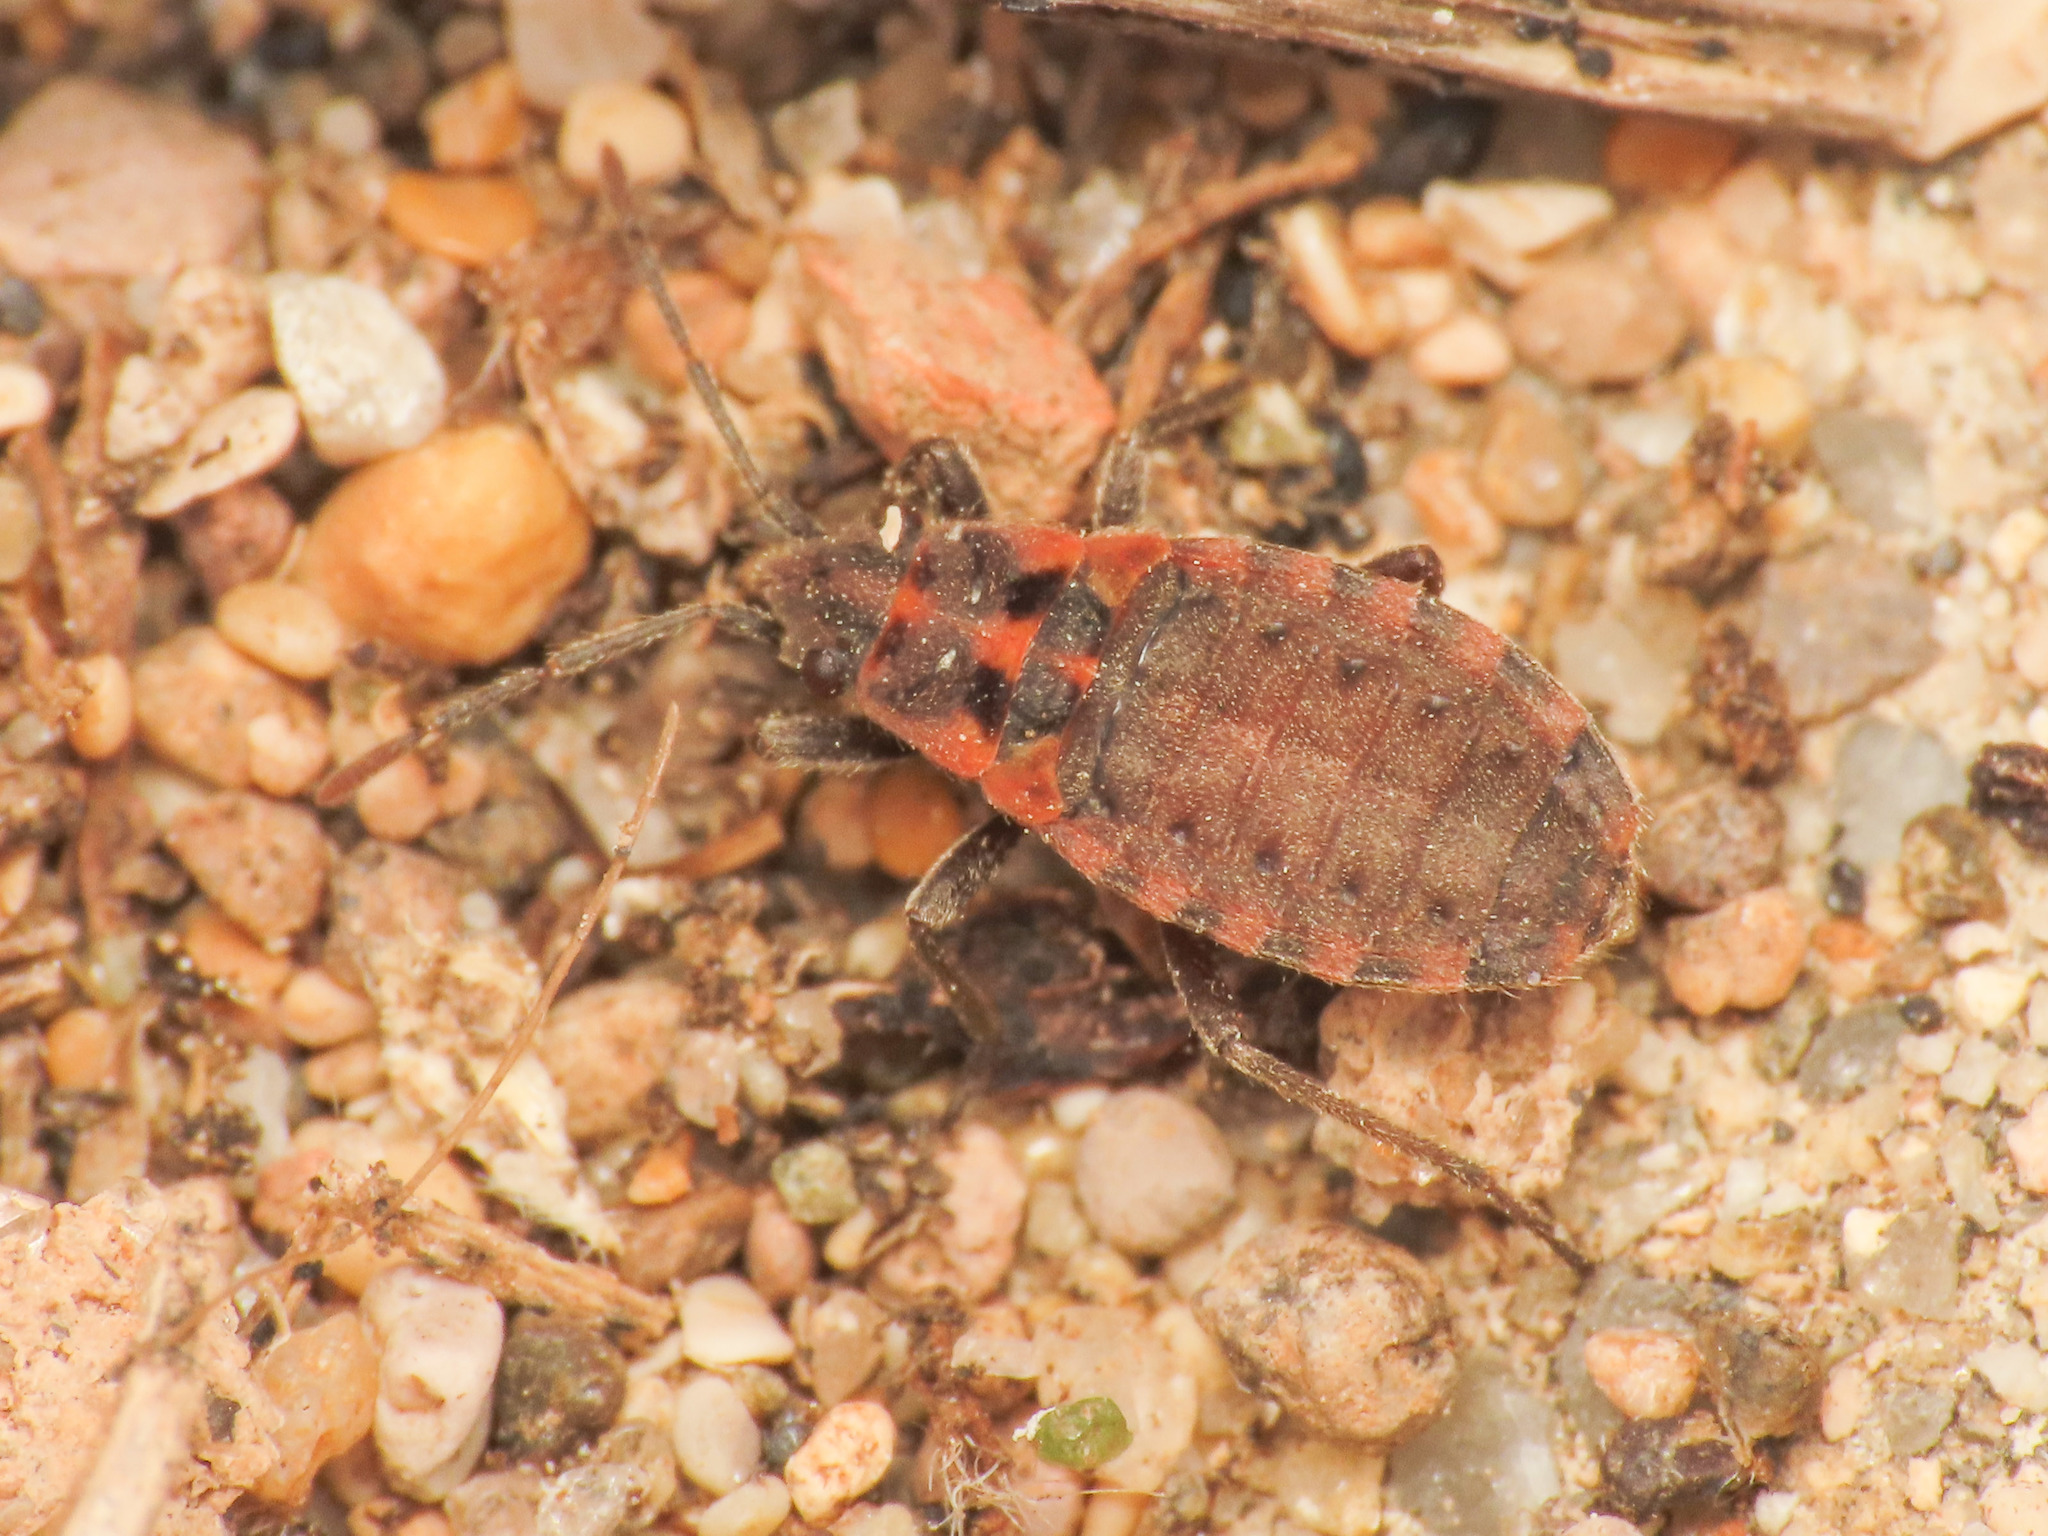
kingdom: Animalia
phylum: Arthropoda
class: Insecta
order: Hemiptera
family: Lygaeidae
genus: Apterola
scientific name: Apterola kunckeli
